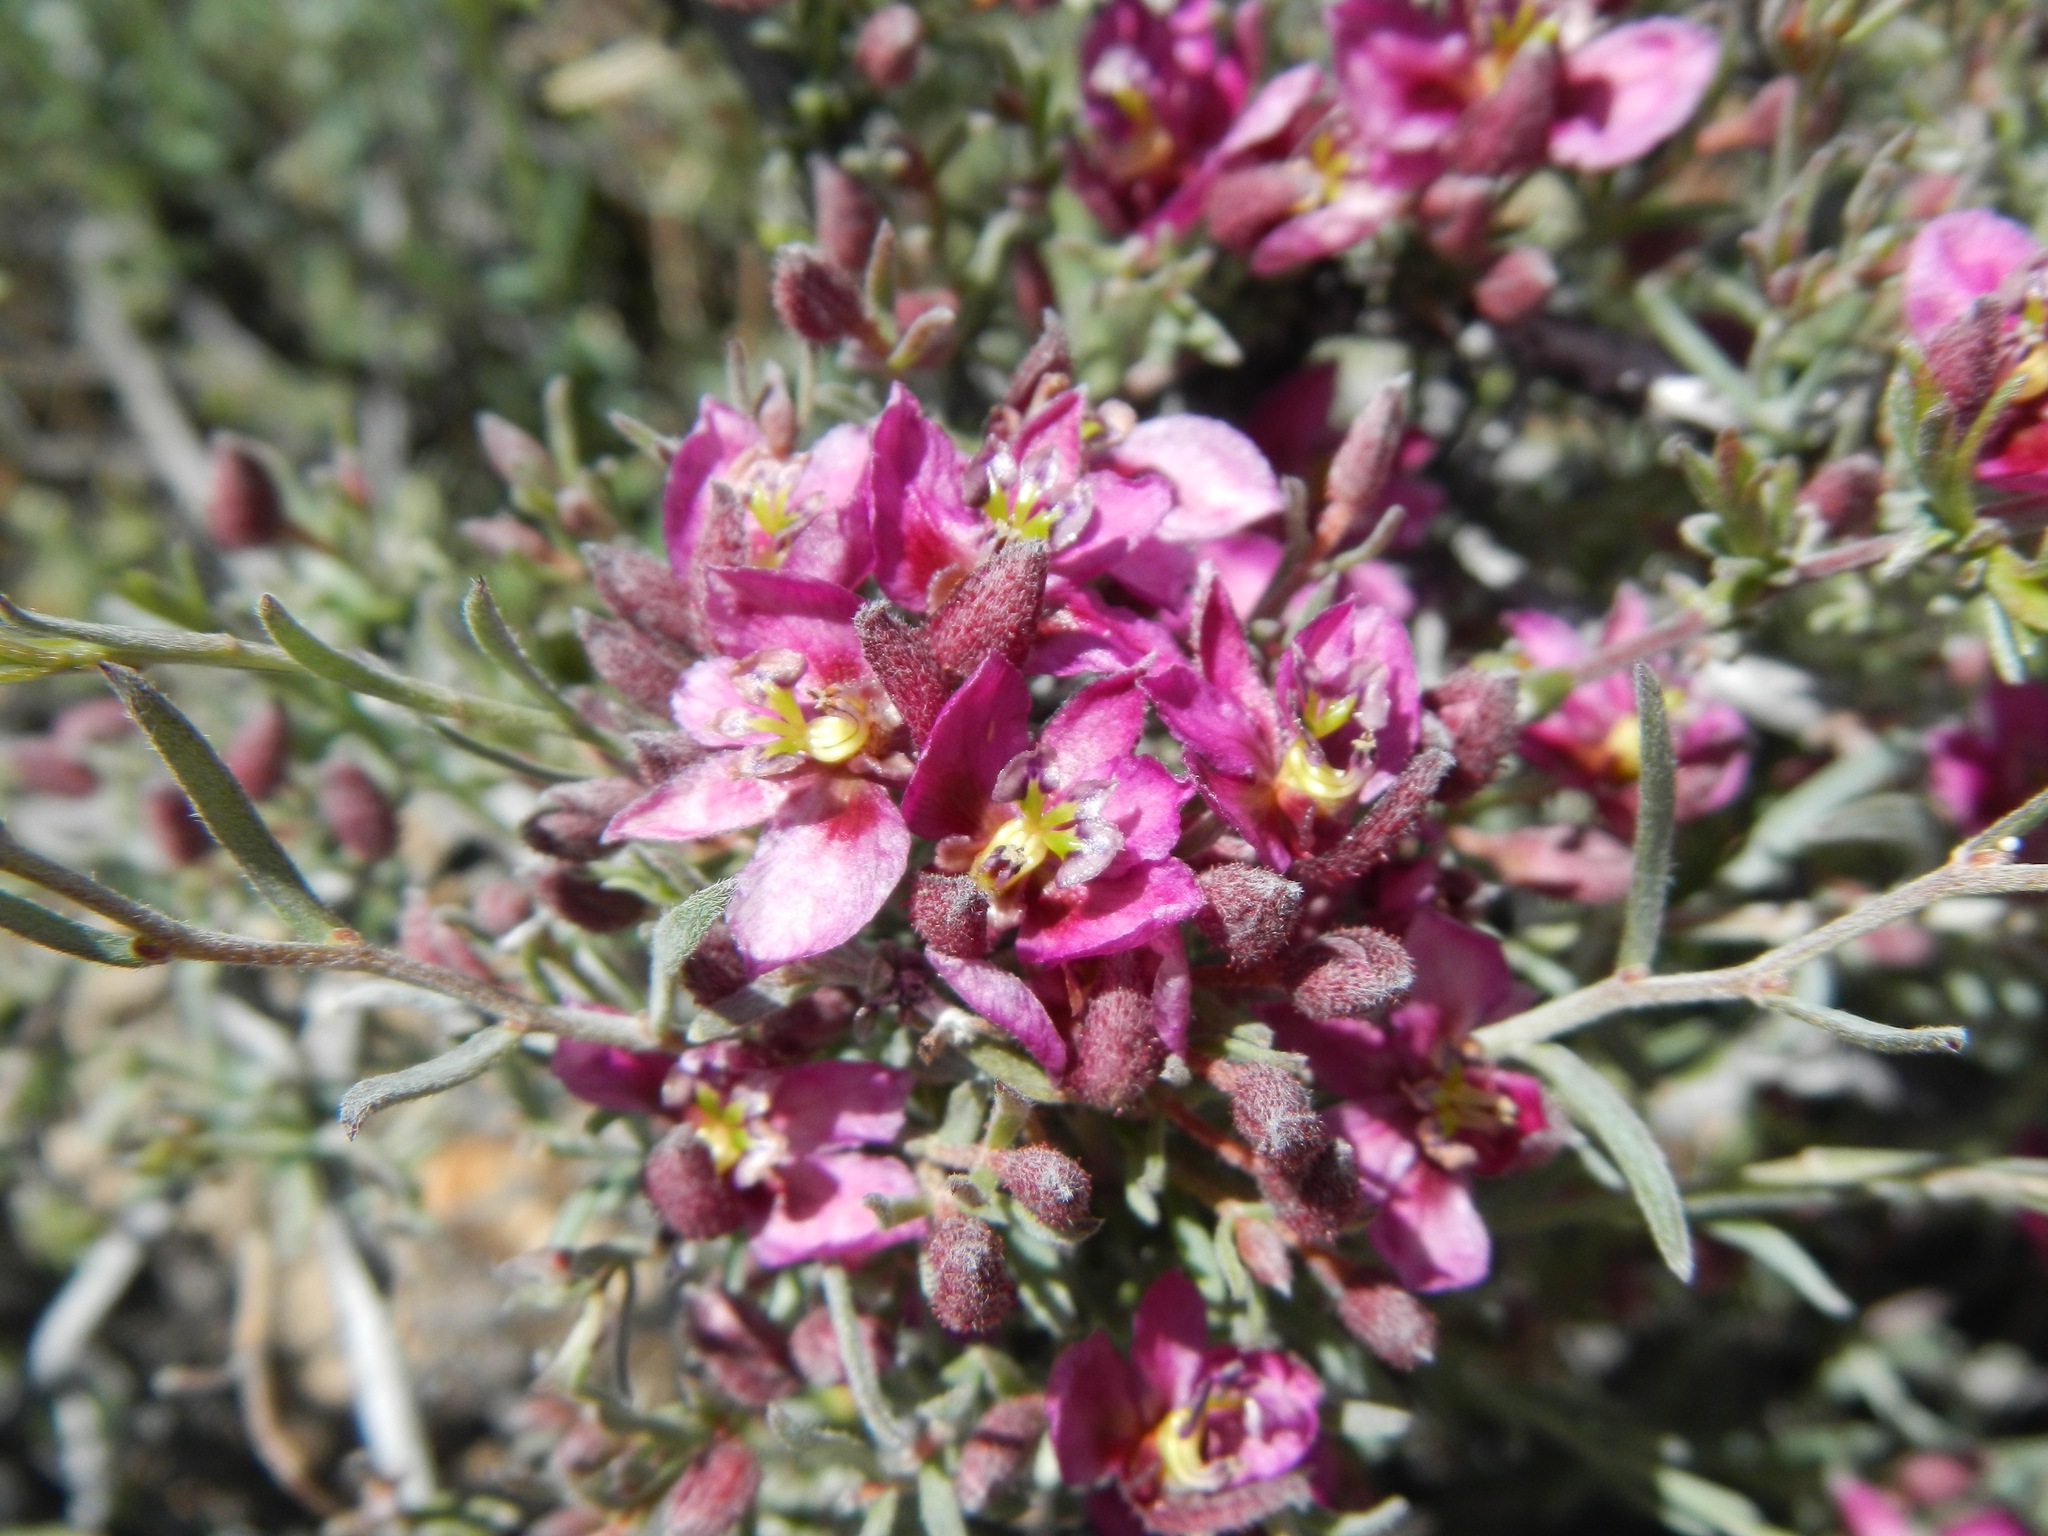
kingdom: Plantae
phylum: Tracheophyta
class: Magnoliopsida
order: Zygophyllales
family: Krameriaceae
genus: Krameria
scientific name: Krameria erecta
